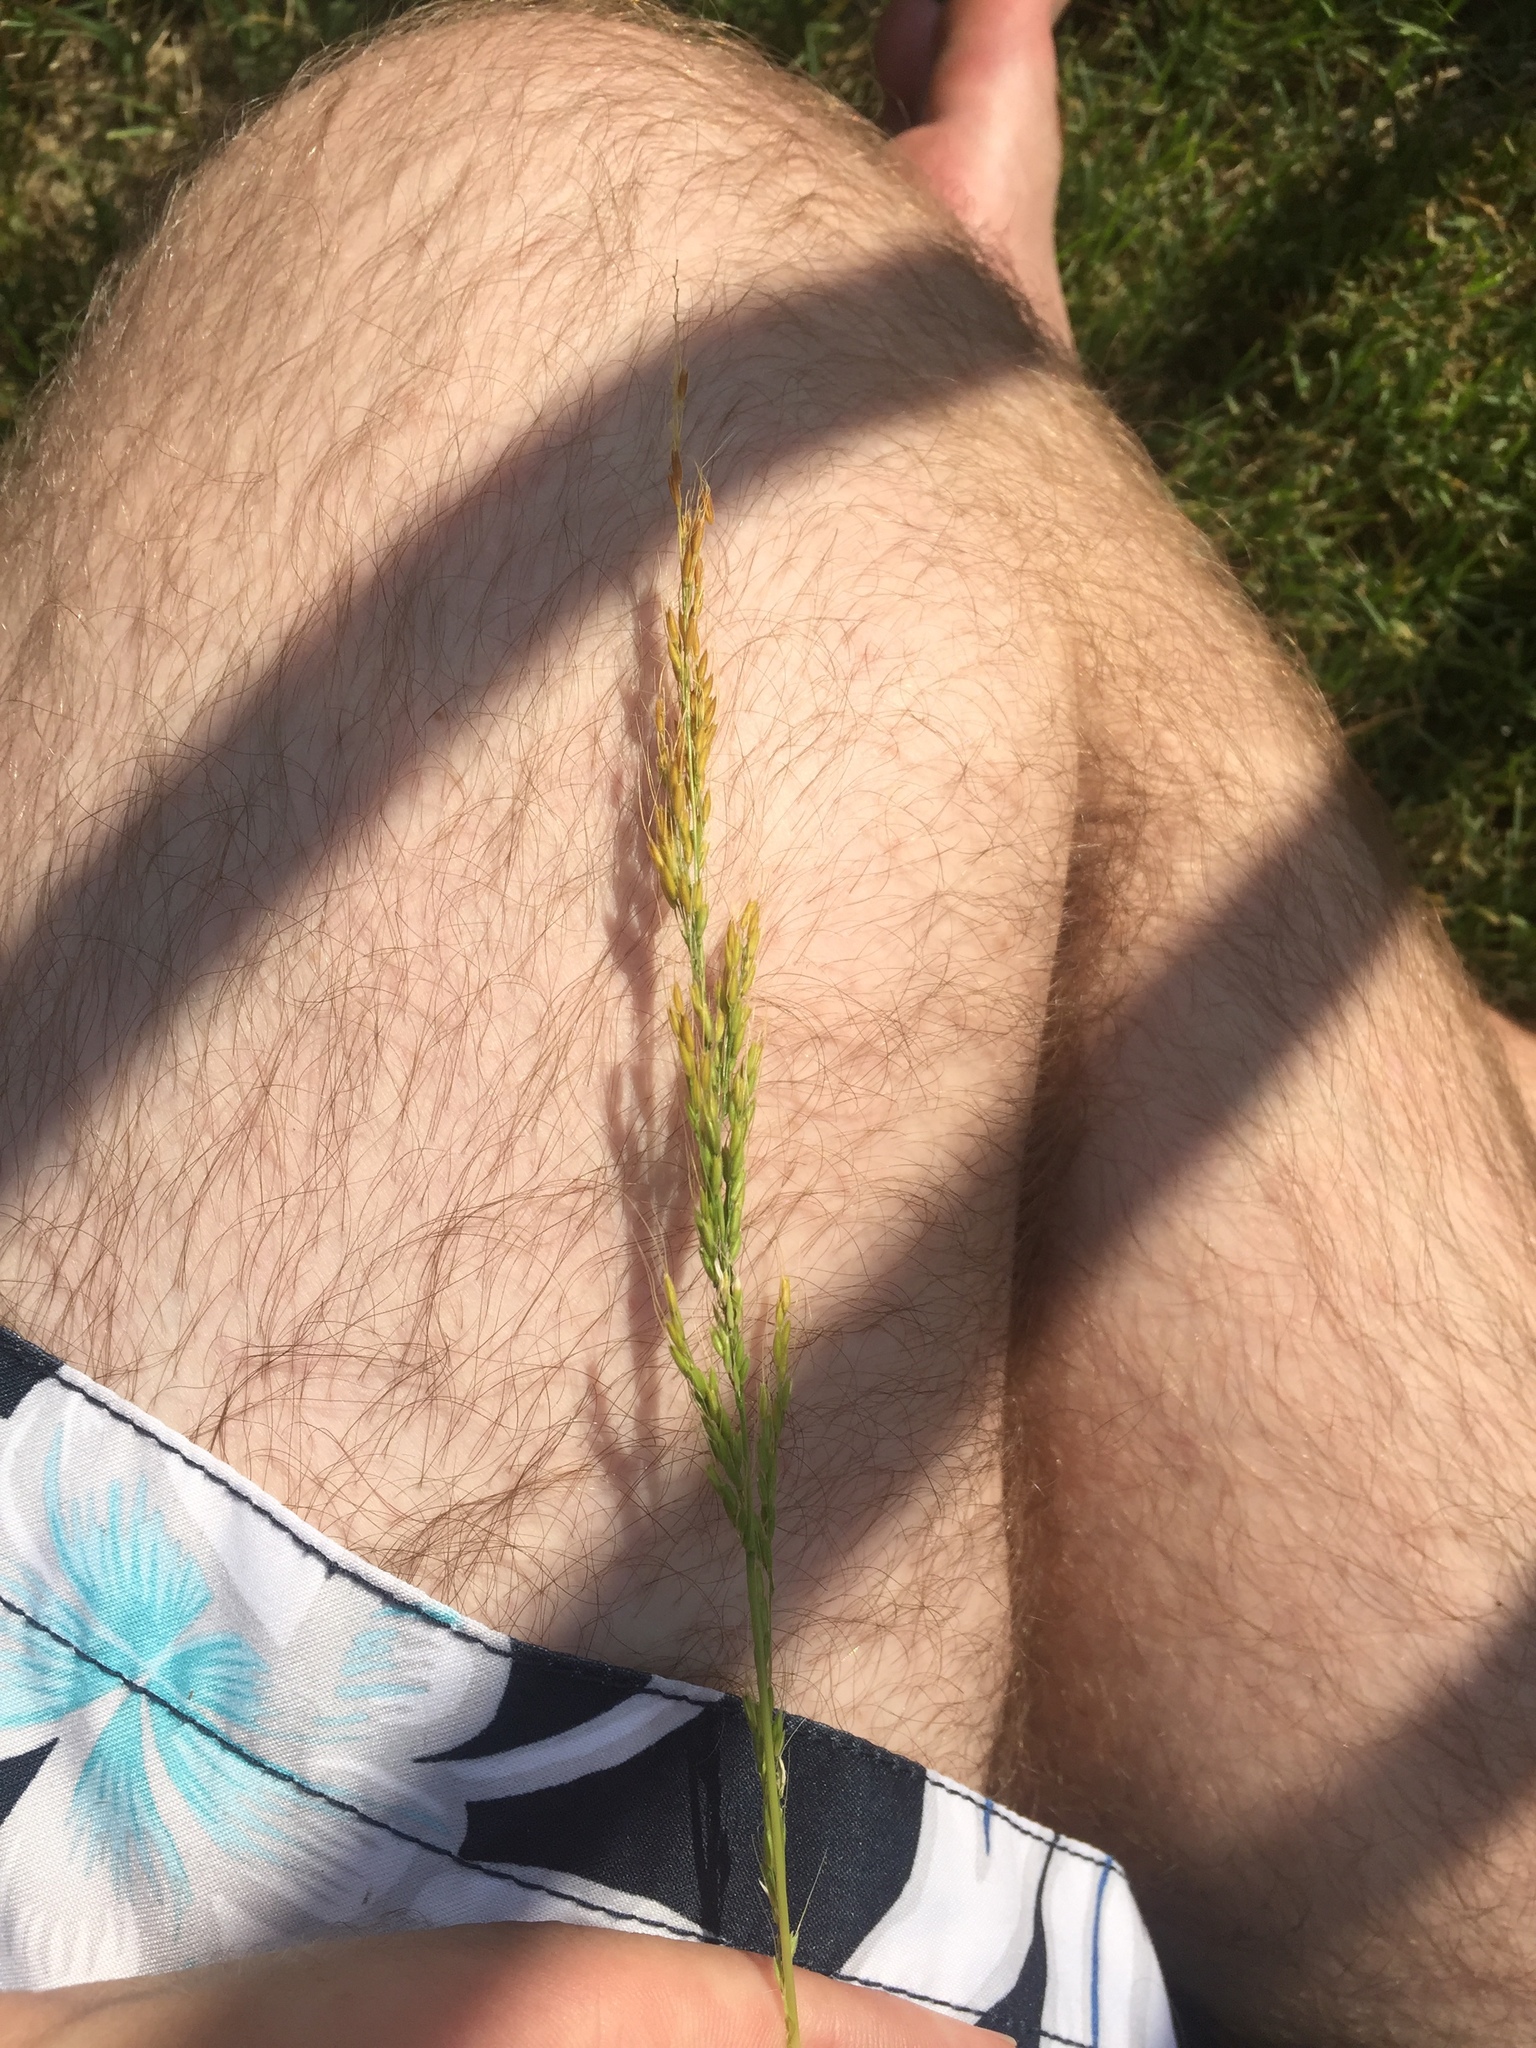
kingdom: Plantae
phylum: Tracheophyta
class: Liliopsida
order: Poales
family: Poaceae
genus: Limnodea
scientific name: Limnodea arkansana
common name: Ozark-grass
